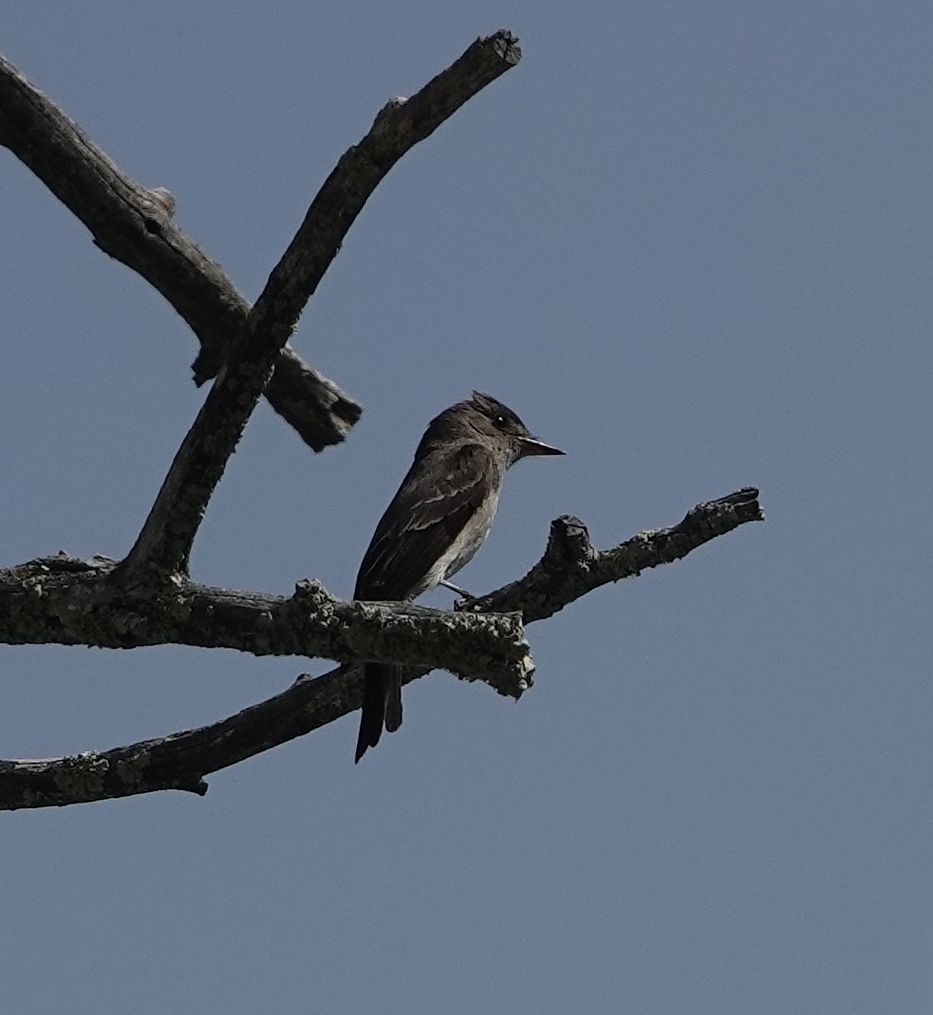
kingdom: Animalia
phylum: Chordata
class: Aves
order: Passeriformes
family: Tyrannidae
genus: Contopus
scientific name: Contopus sordidulus
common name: Western wood-pewee
